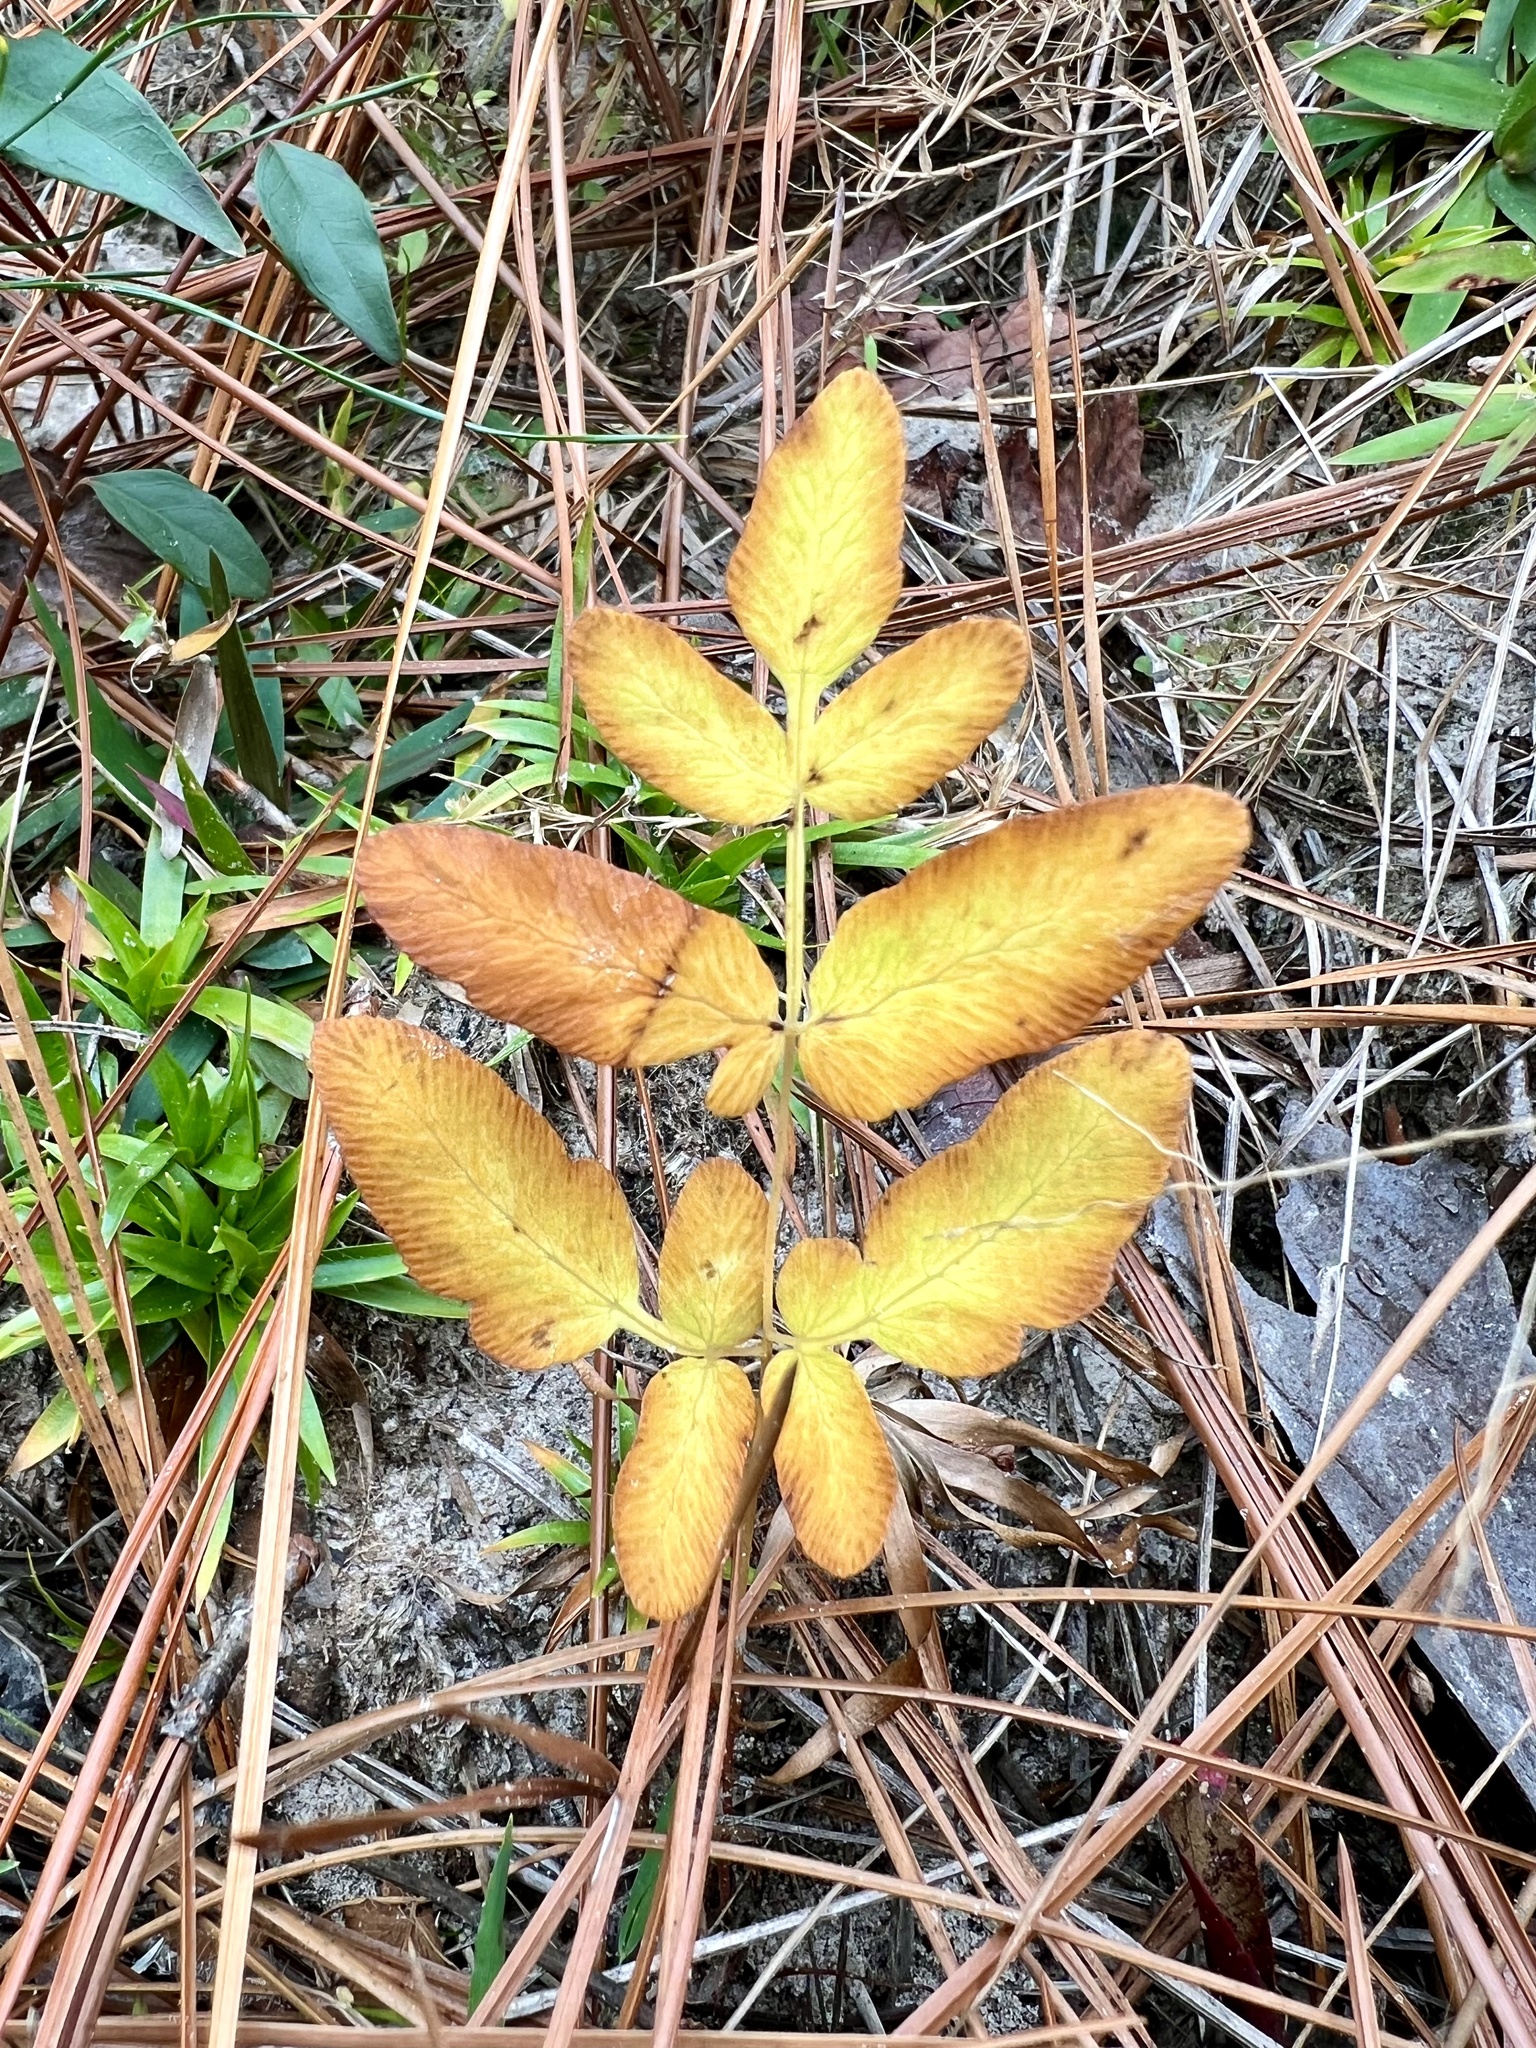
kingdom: Plantae
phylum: Tracheophyta
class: Polypodiopsida
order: Osmundales
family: Osmundaceae
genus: Osmunda
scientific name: Osmunda spectabilis
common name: American royal fern
